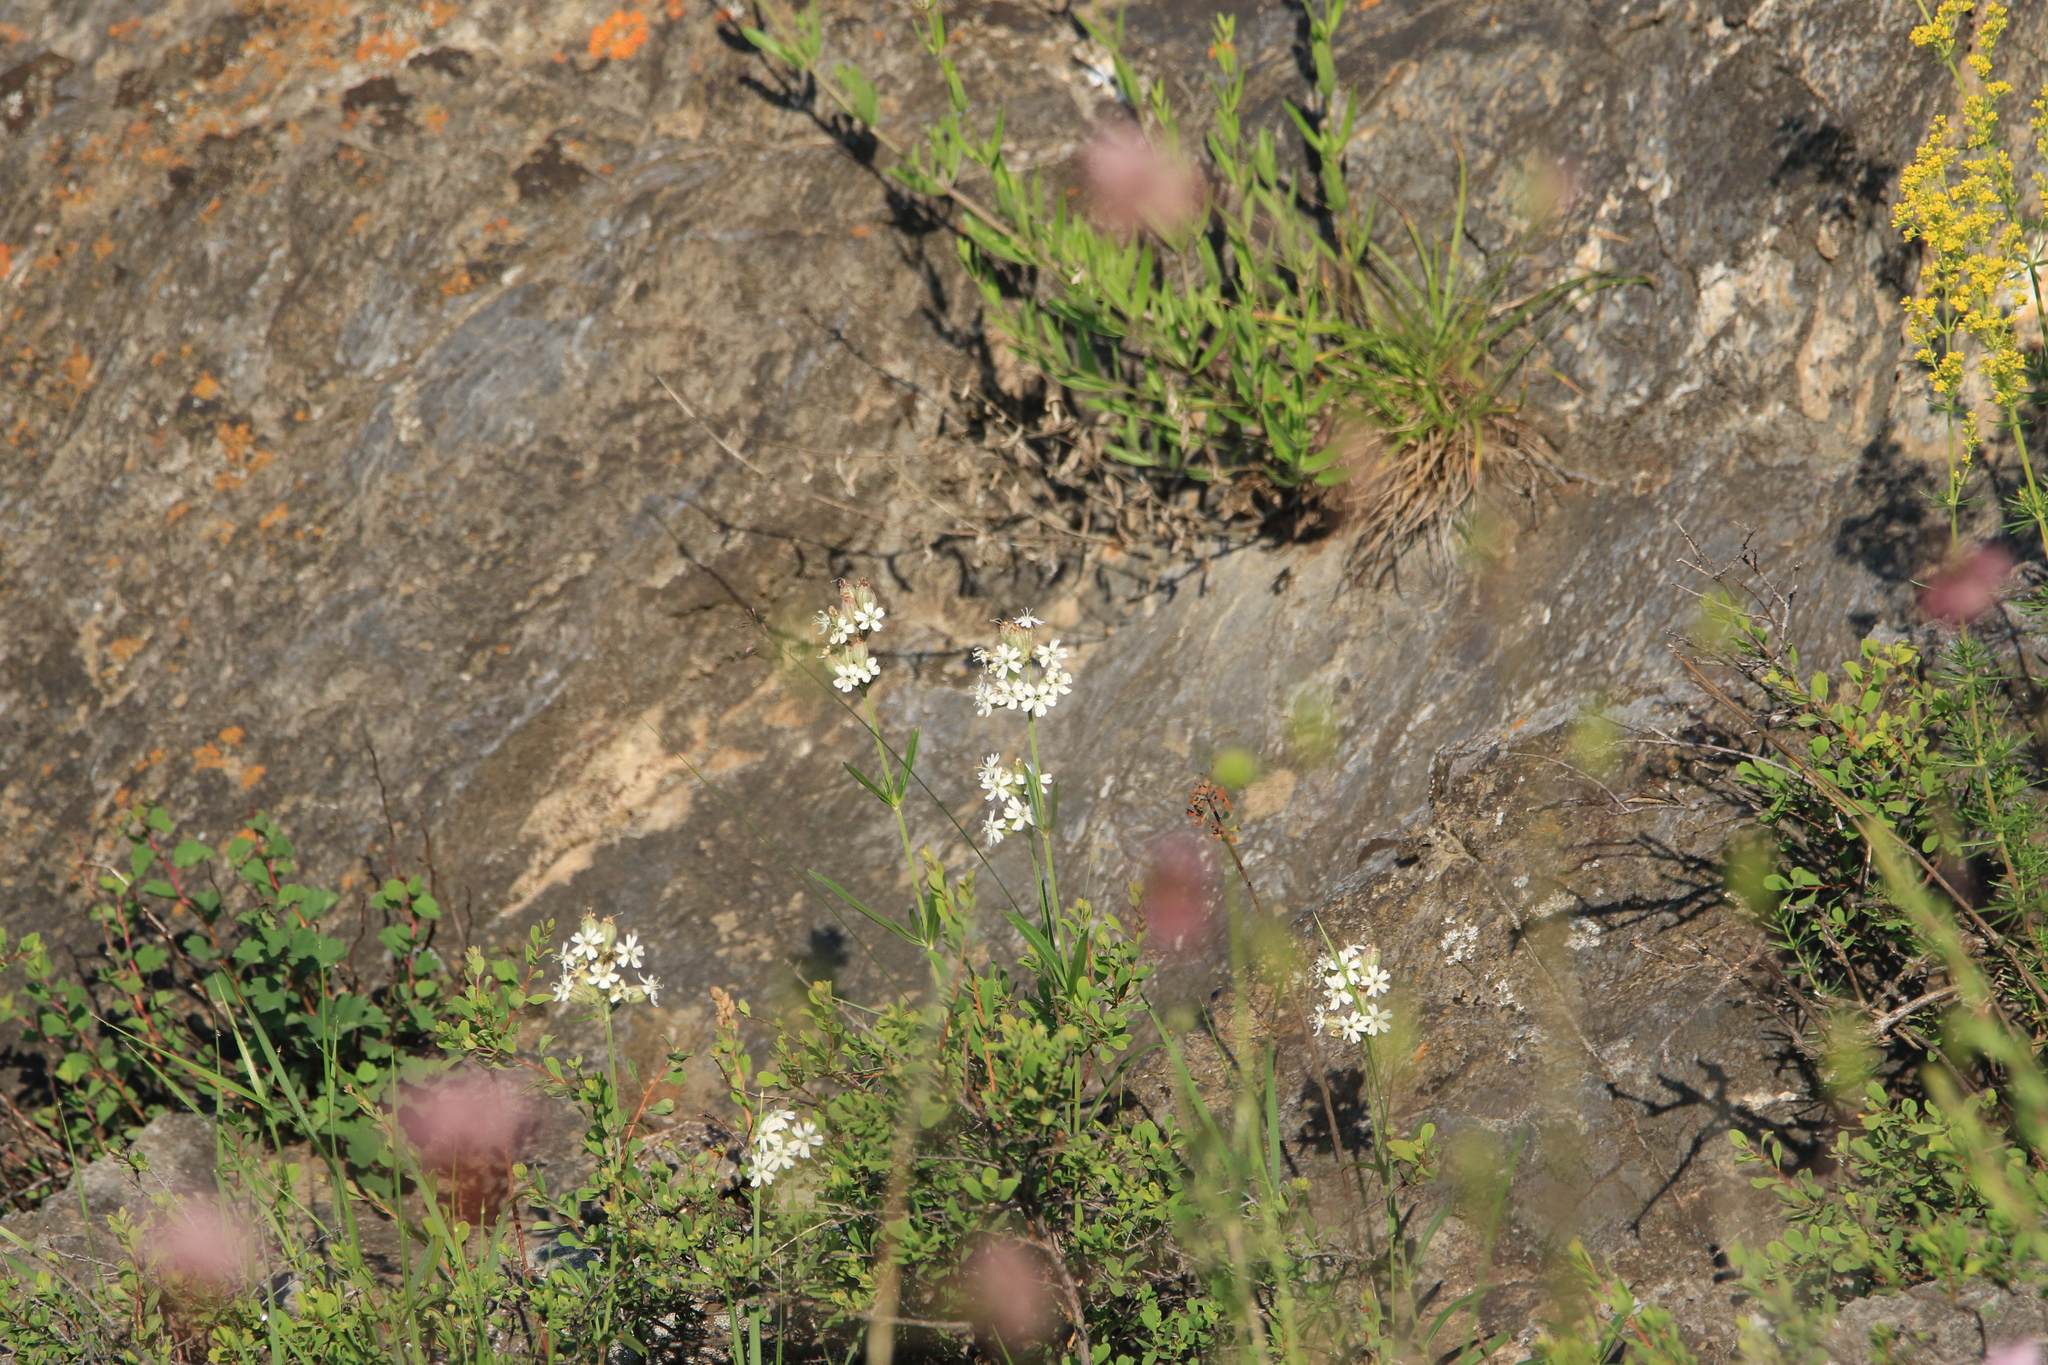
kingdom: Plantae
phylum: Tracheophyta
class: Magnoliopsida
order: Caryophyllales
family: Caryophyllaceae
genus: Silene
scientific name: Silene amoena
